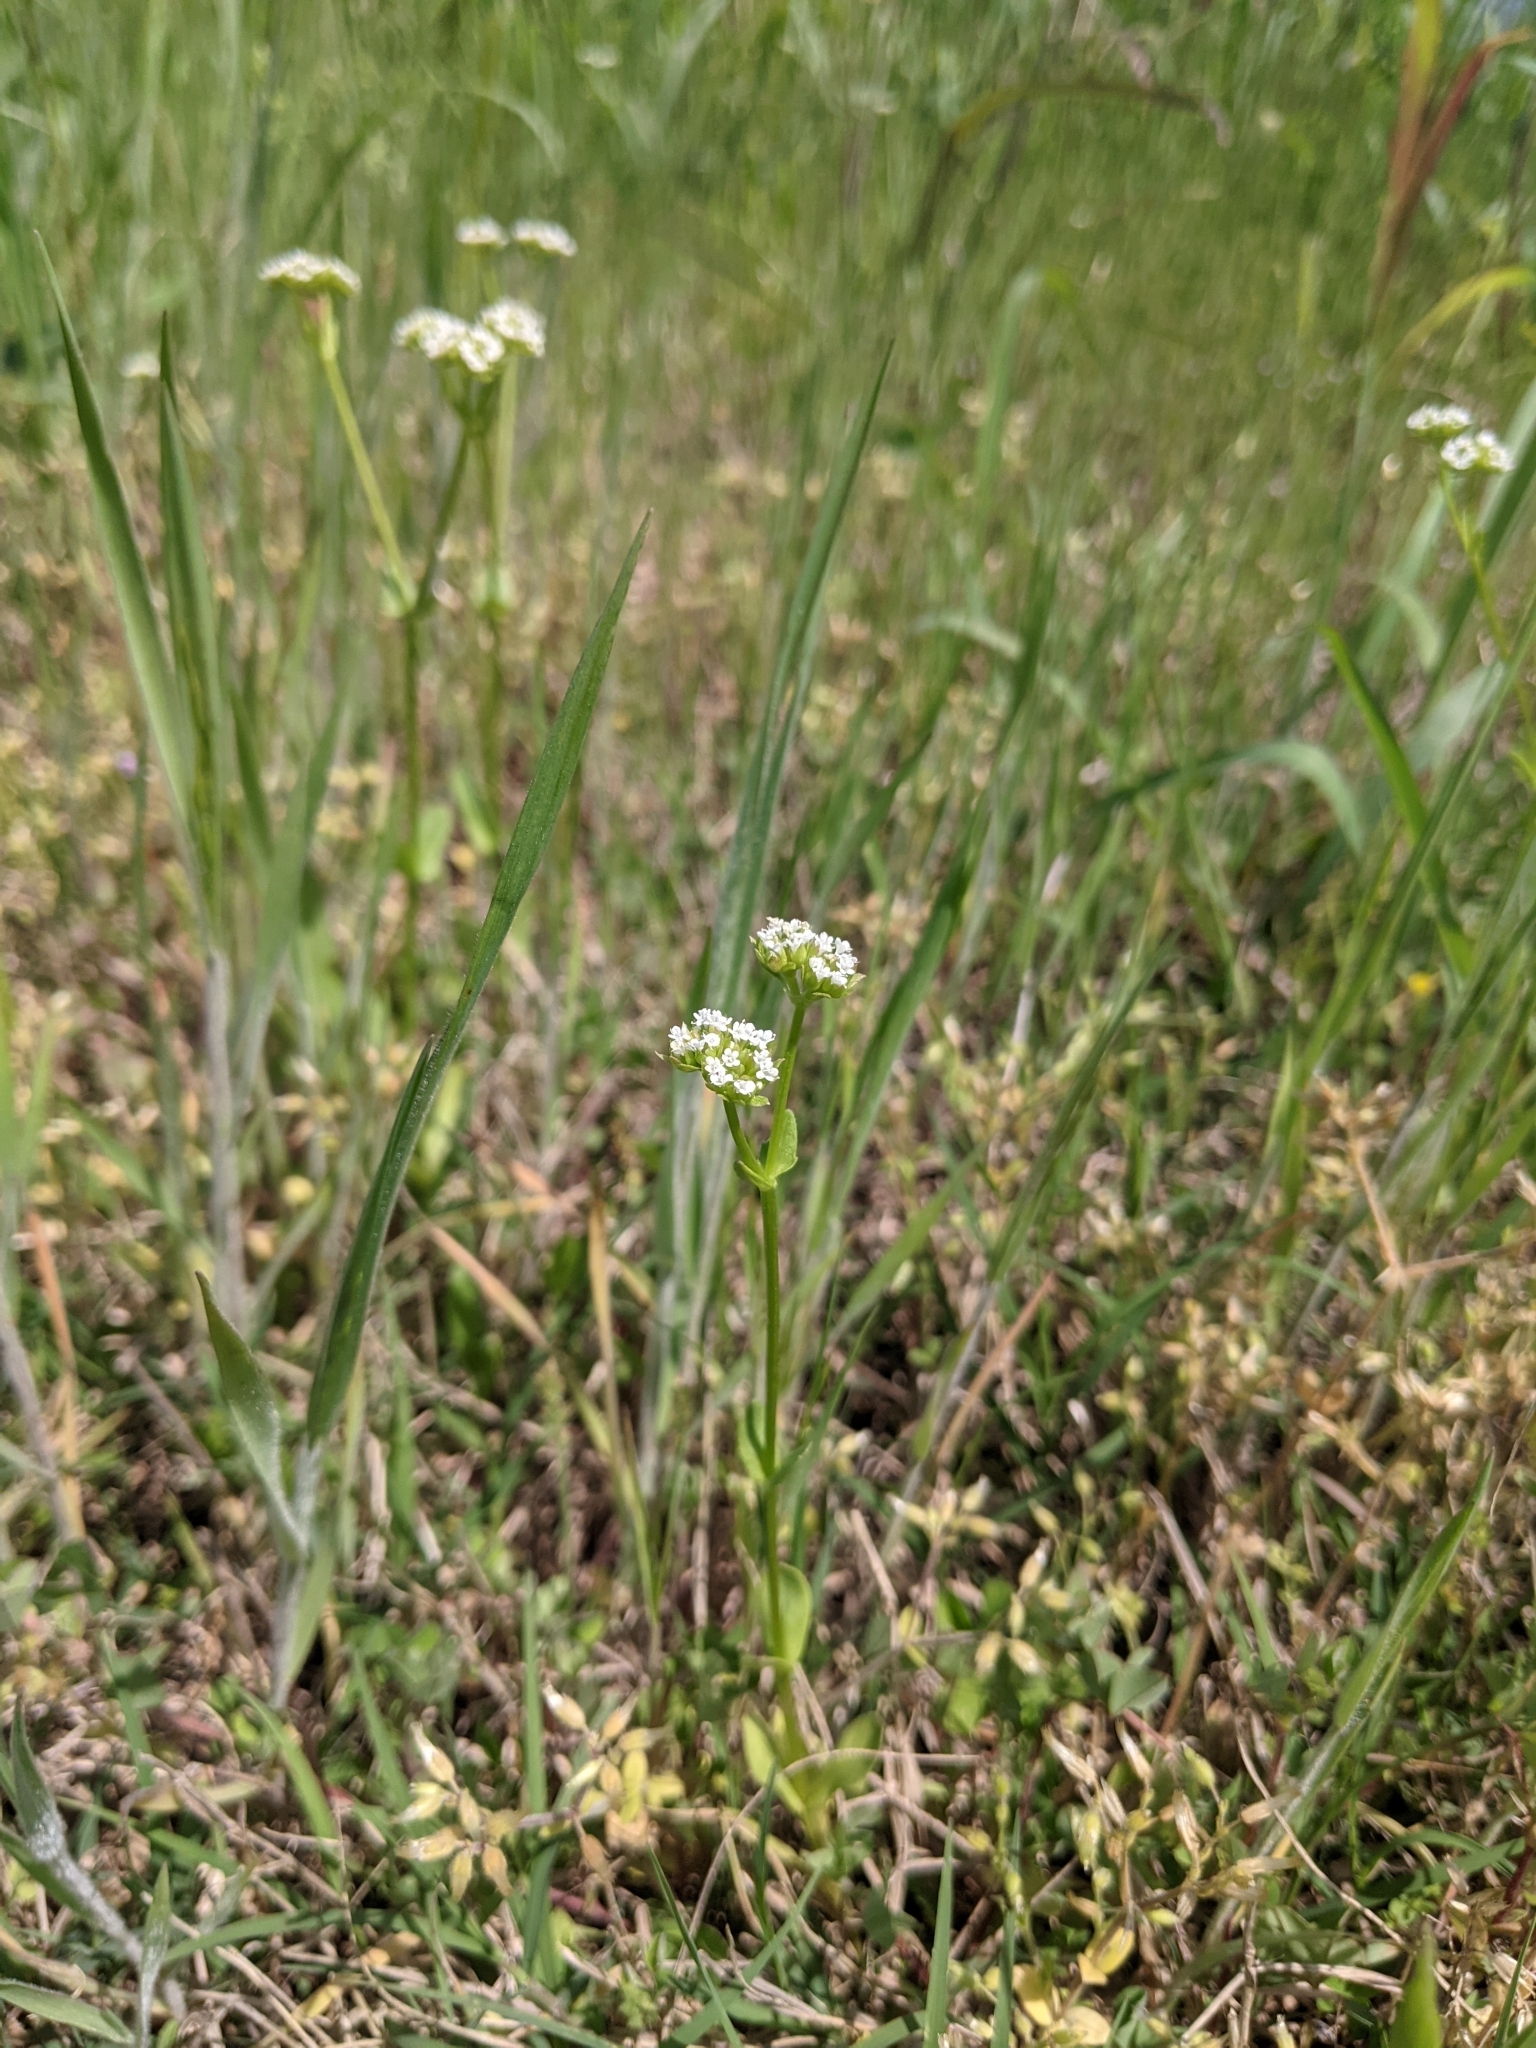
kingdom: Plantae
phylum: Tracheophyta
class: Magnoliopsida
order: Dipsacales
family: Caprifoliaceae
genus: Valerianella
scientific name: Valerianella radiata
